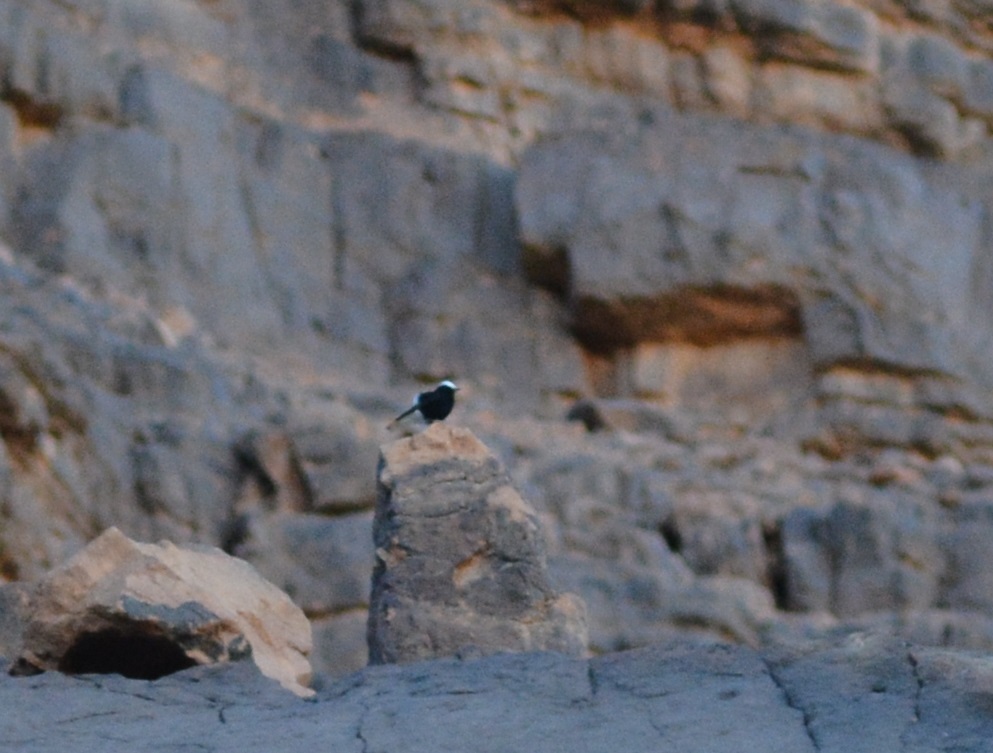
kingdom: Animalia
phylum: Chordata
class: Aves
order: Passeriformes
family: Muscicapidae
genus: Oenanthe
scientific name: Oenanthe leucopyga
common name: White-crowned wheatear
